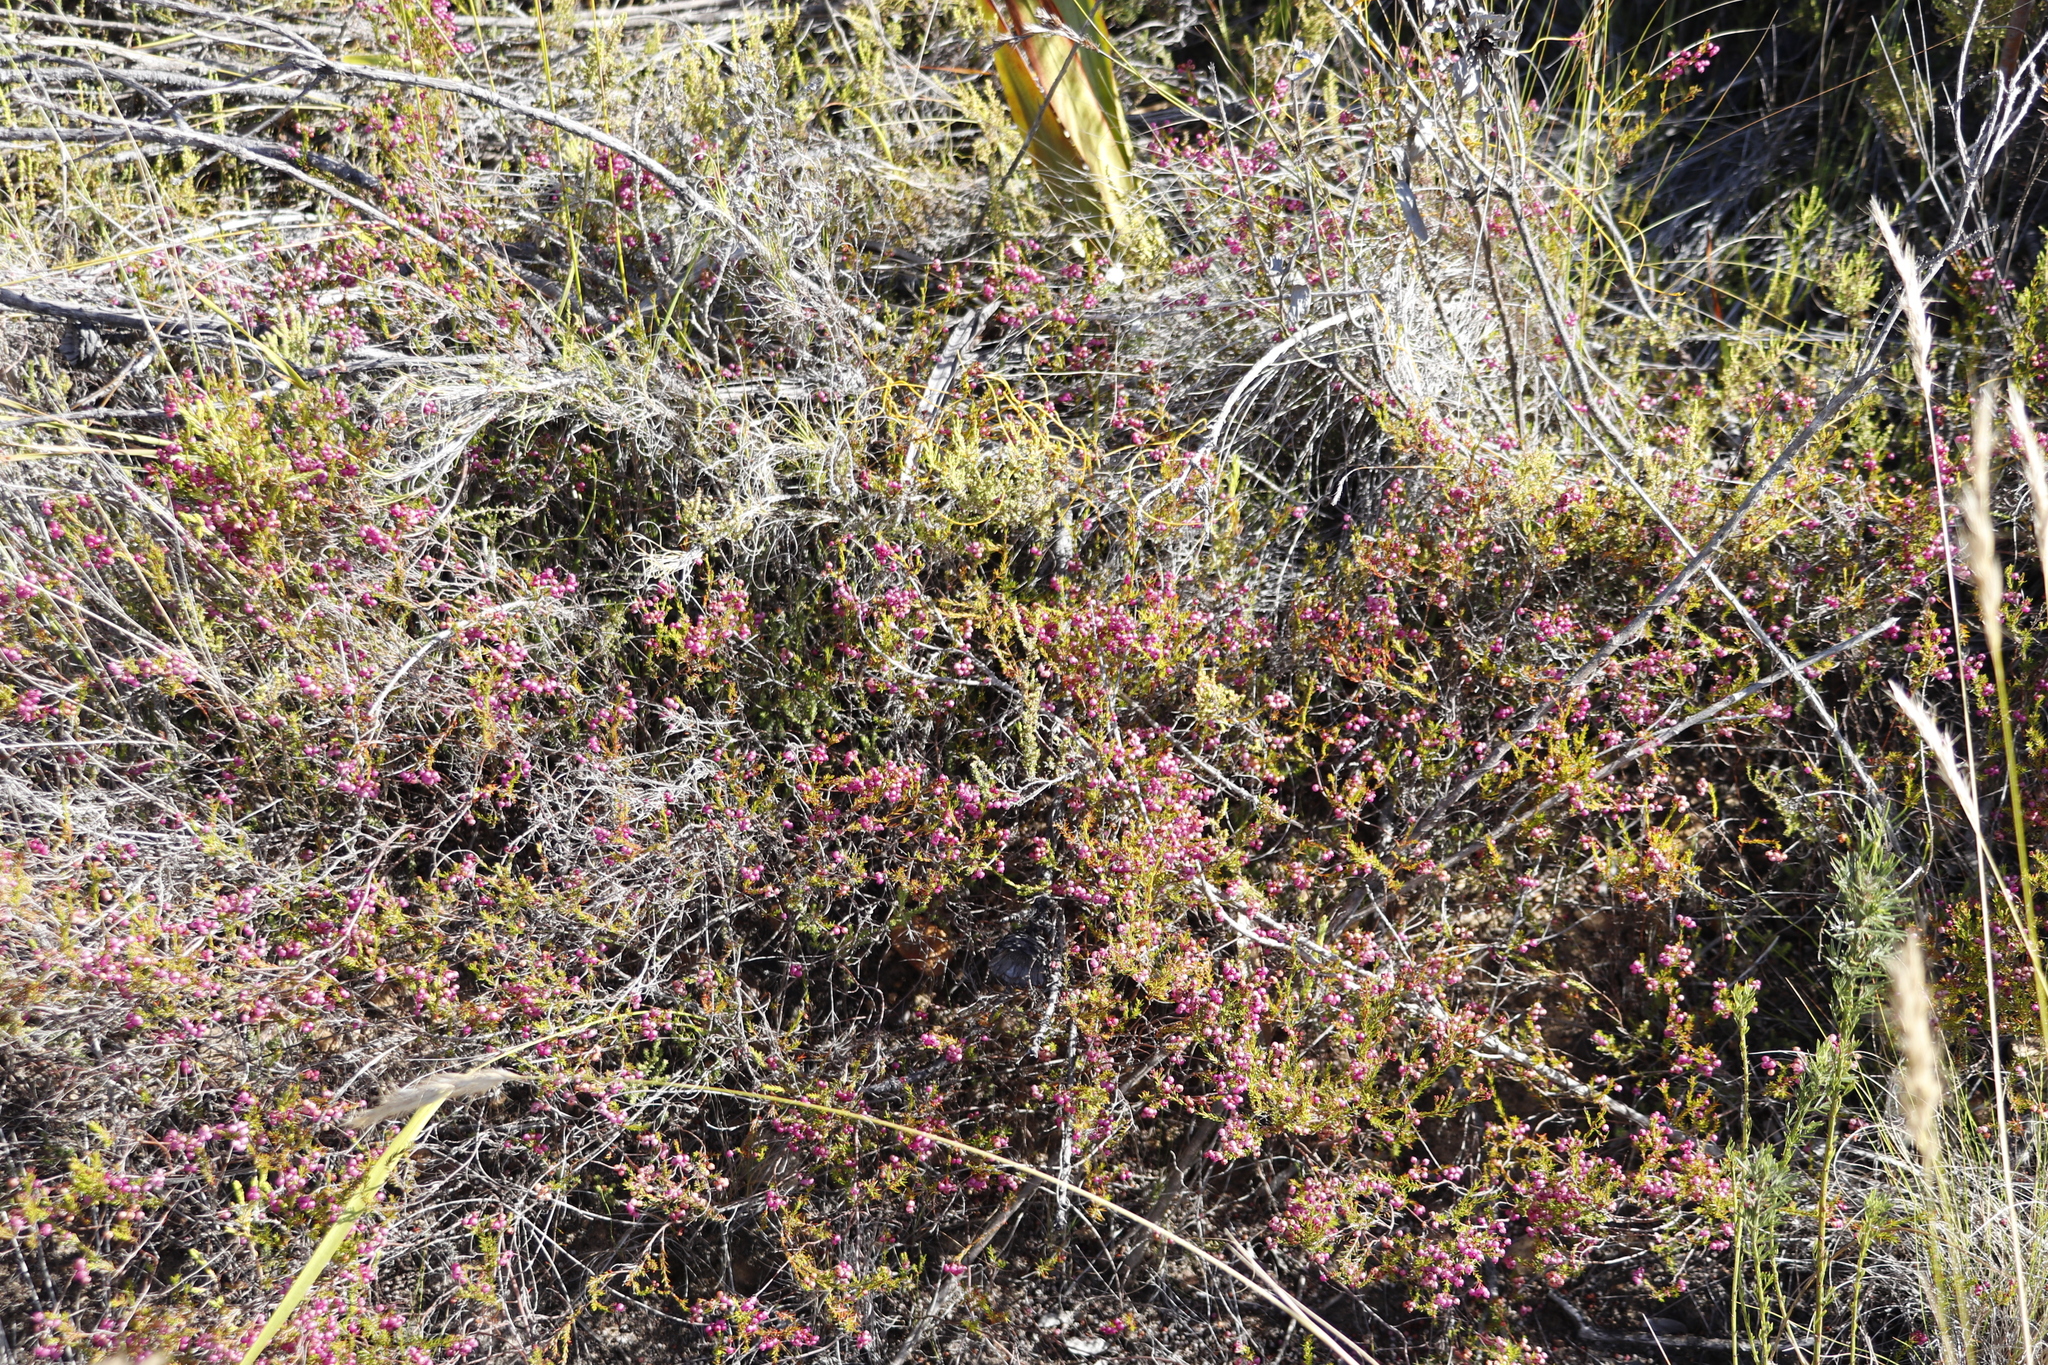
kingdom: Plantae
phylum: Tracheophyta
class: Magnoliopsida
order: Ericales
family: Ericaceae
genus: Erica
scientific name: Erica multumbellifera
